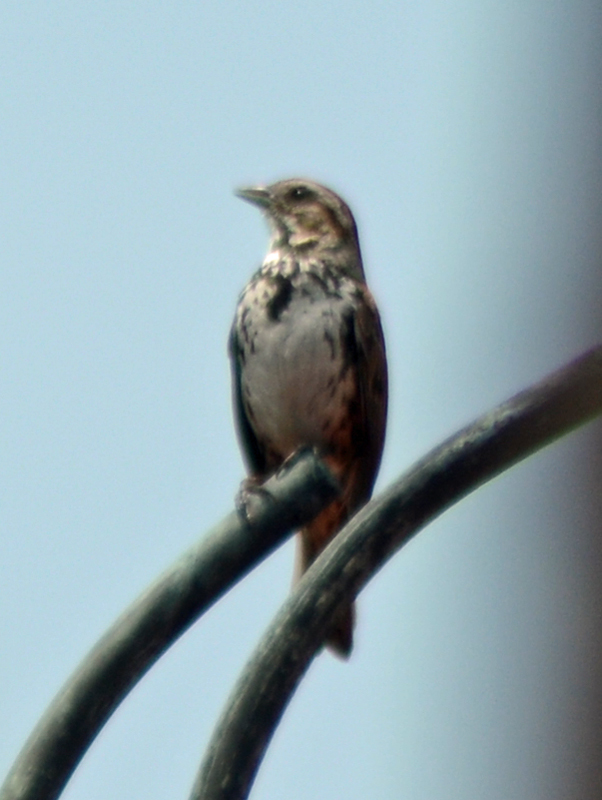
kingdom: Animalia
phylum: Chordata
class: Aves
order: Passeriformes
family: Passerellidae
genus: Melospiza
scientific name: Melospiza melodia
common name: Song sparrow
